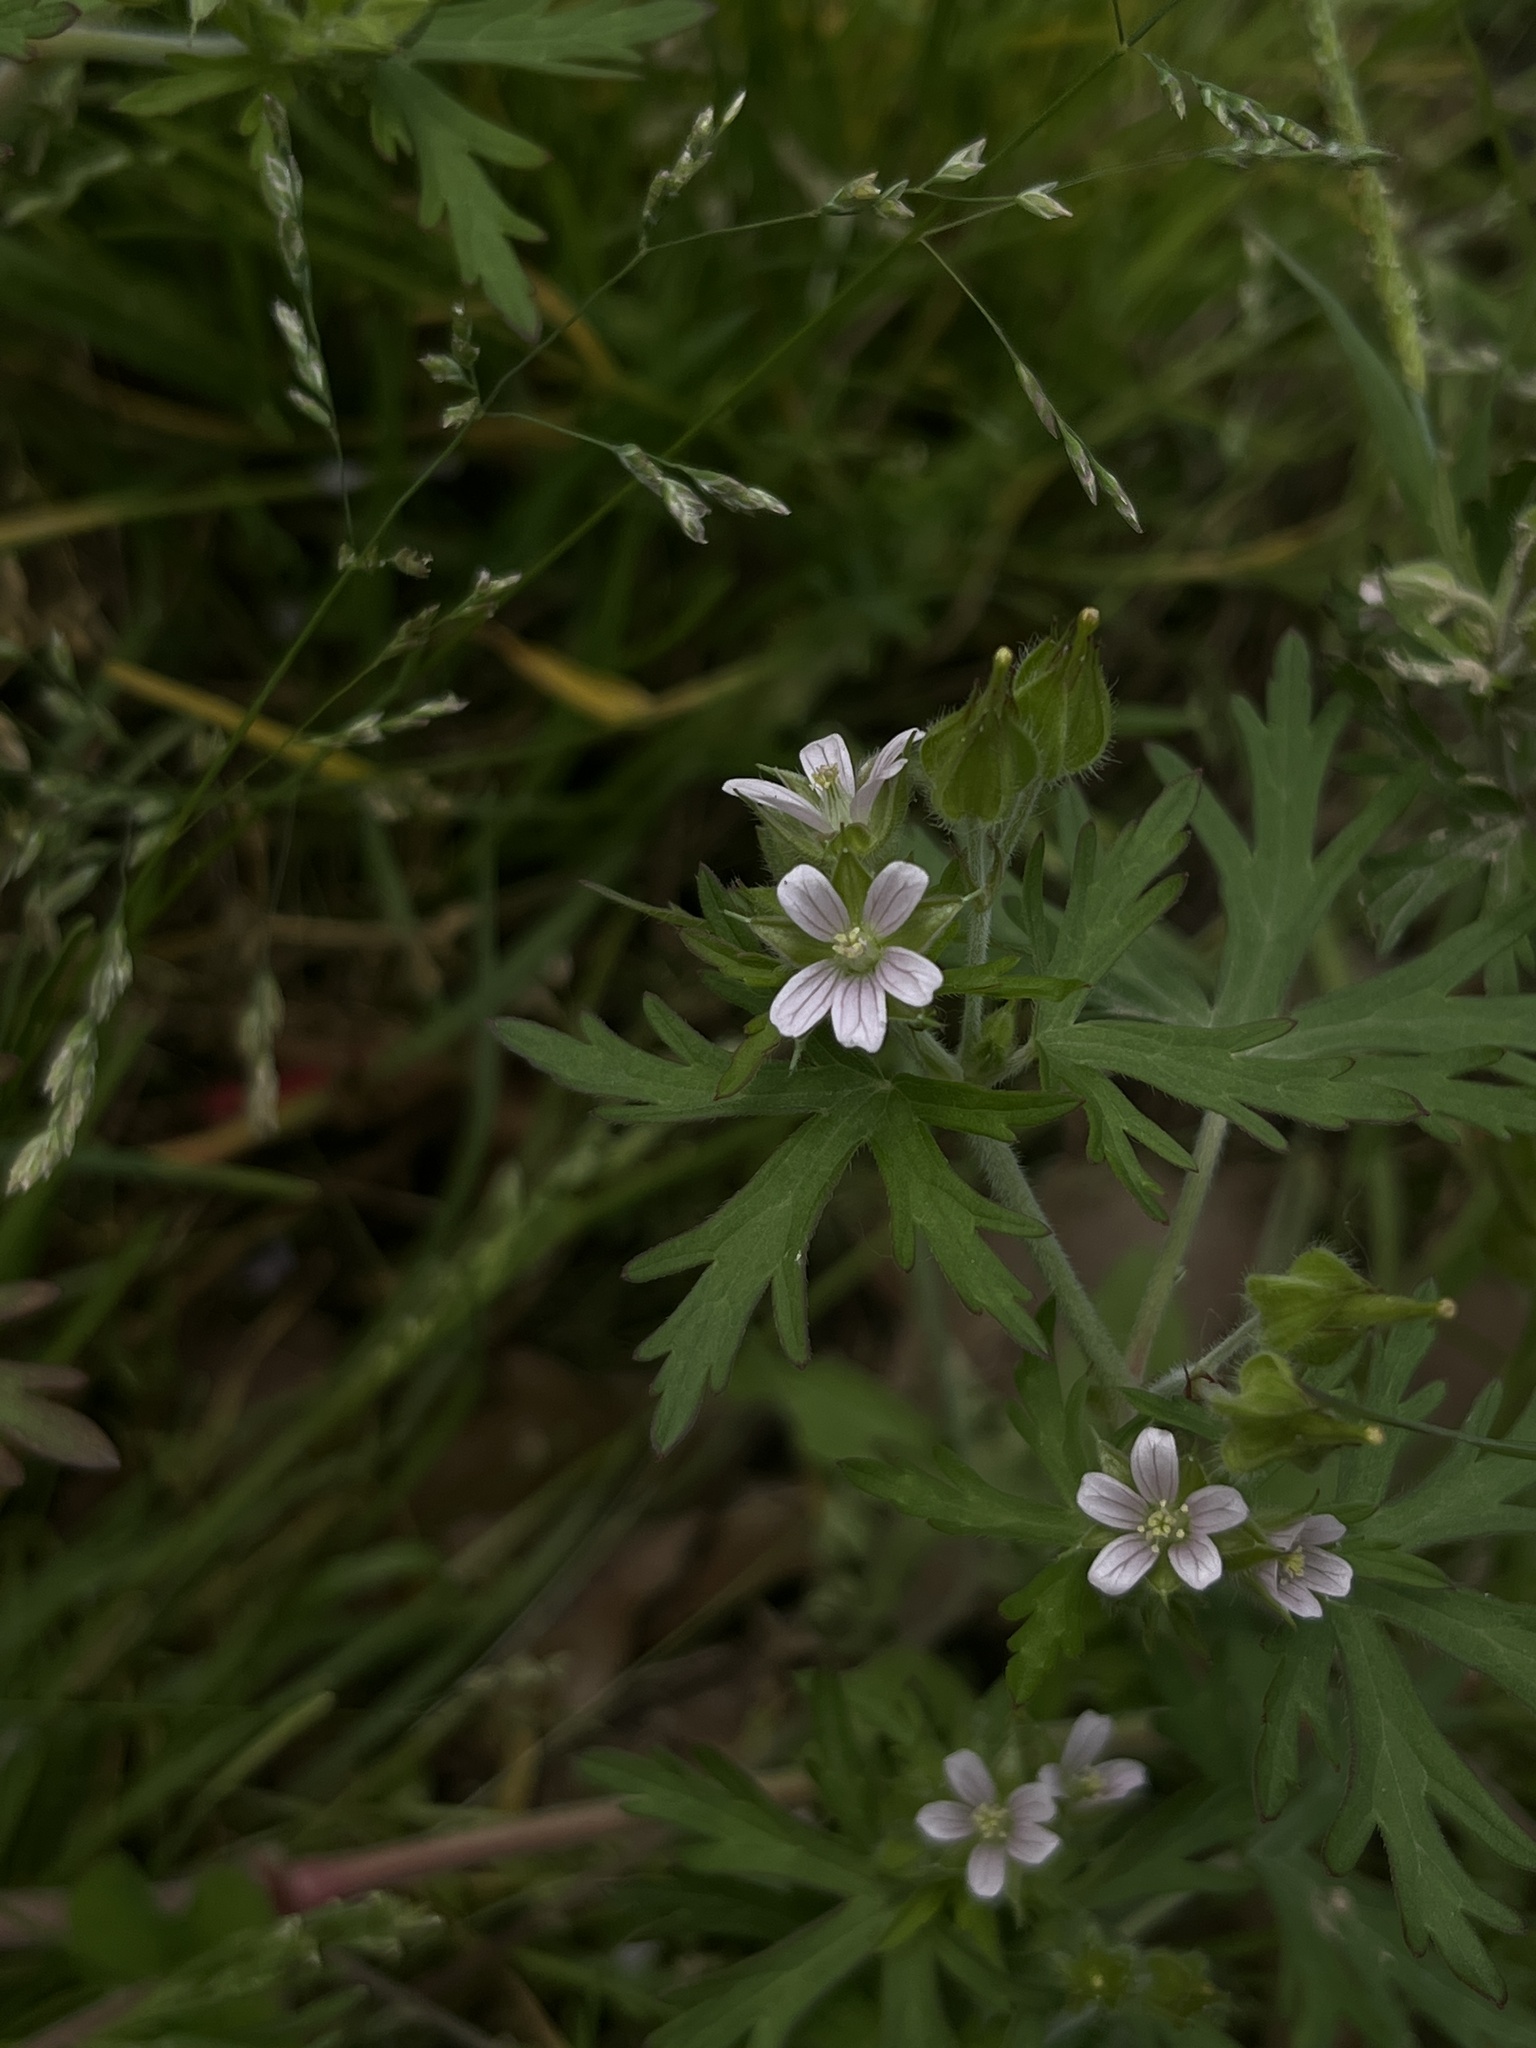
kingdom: Plantae
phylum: Tracheophyta
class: Magnoliopsida
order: Geraniales
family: Geraniaceae
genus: Geranium
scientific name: Geranium carolinianum
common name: Carolina crane's-bill
